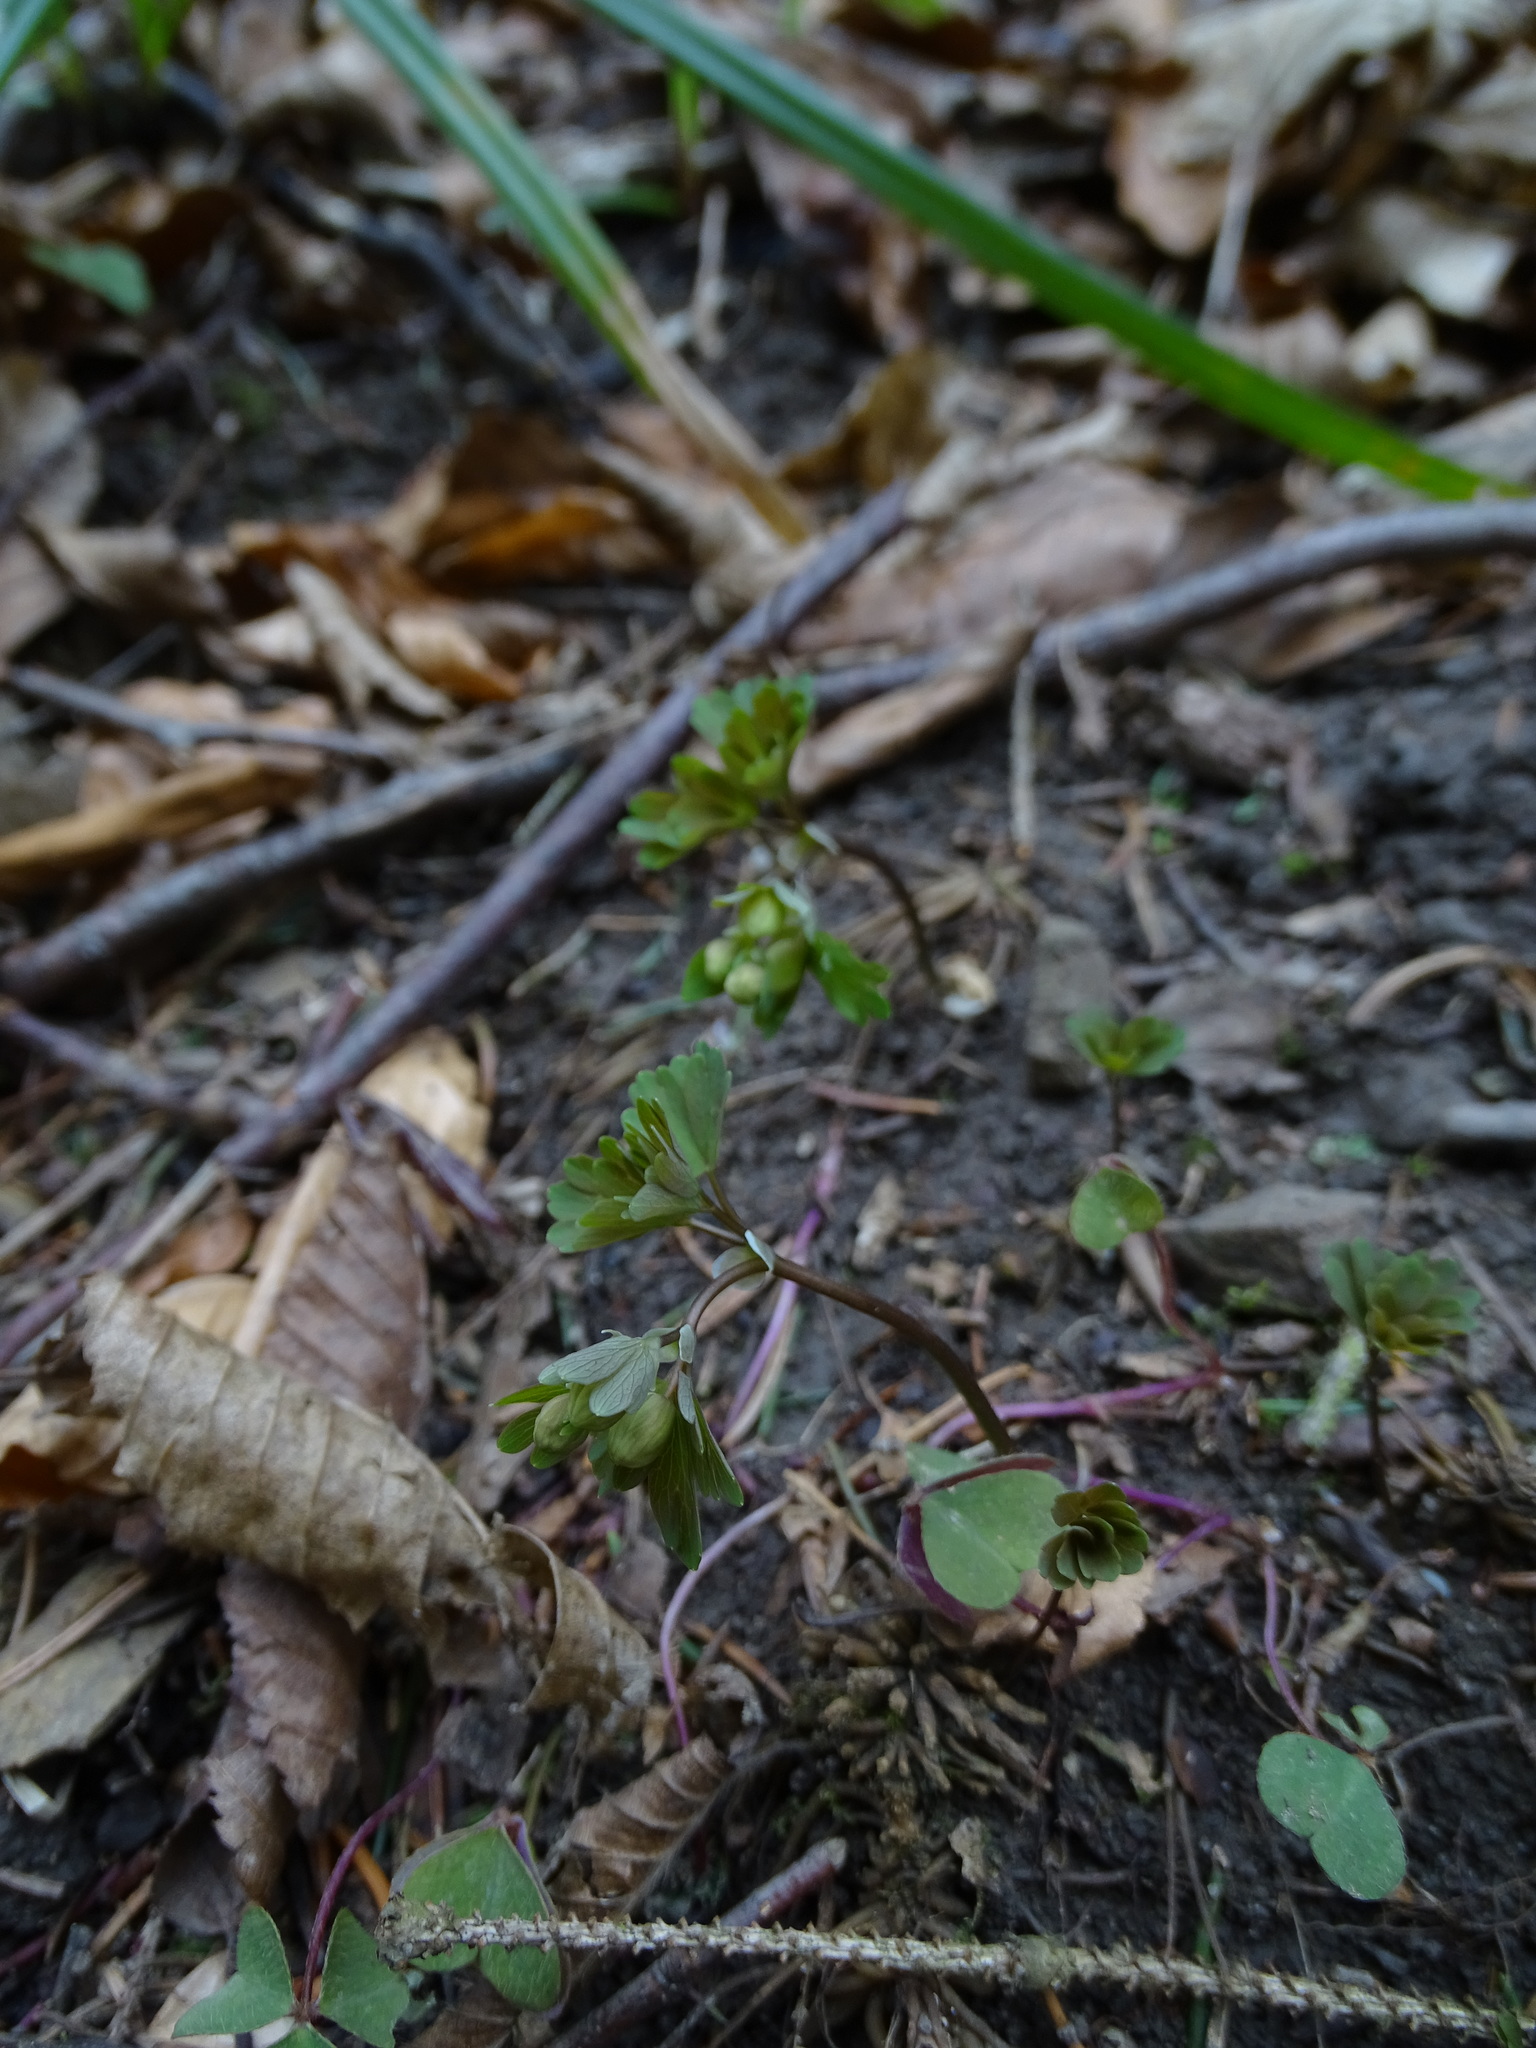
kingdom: Plantae
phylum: Tracheophyta
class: Magnoliopsida
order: Ranunculales
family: Ranunculaceae
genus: Isopyrum
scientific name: Isopyrum thalictroides
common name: Isopyrum
